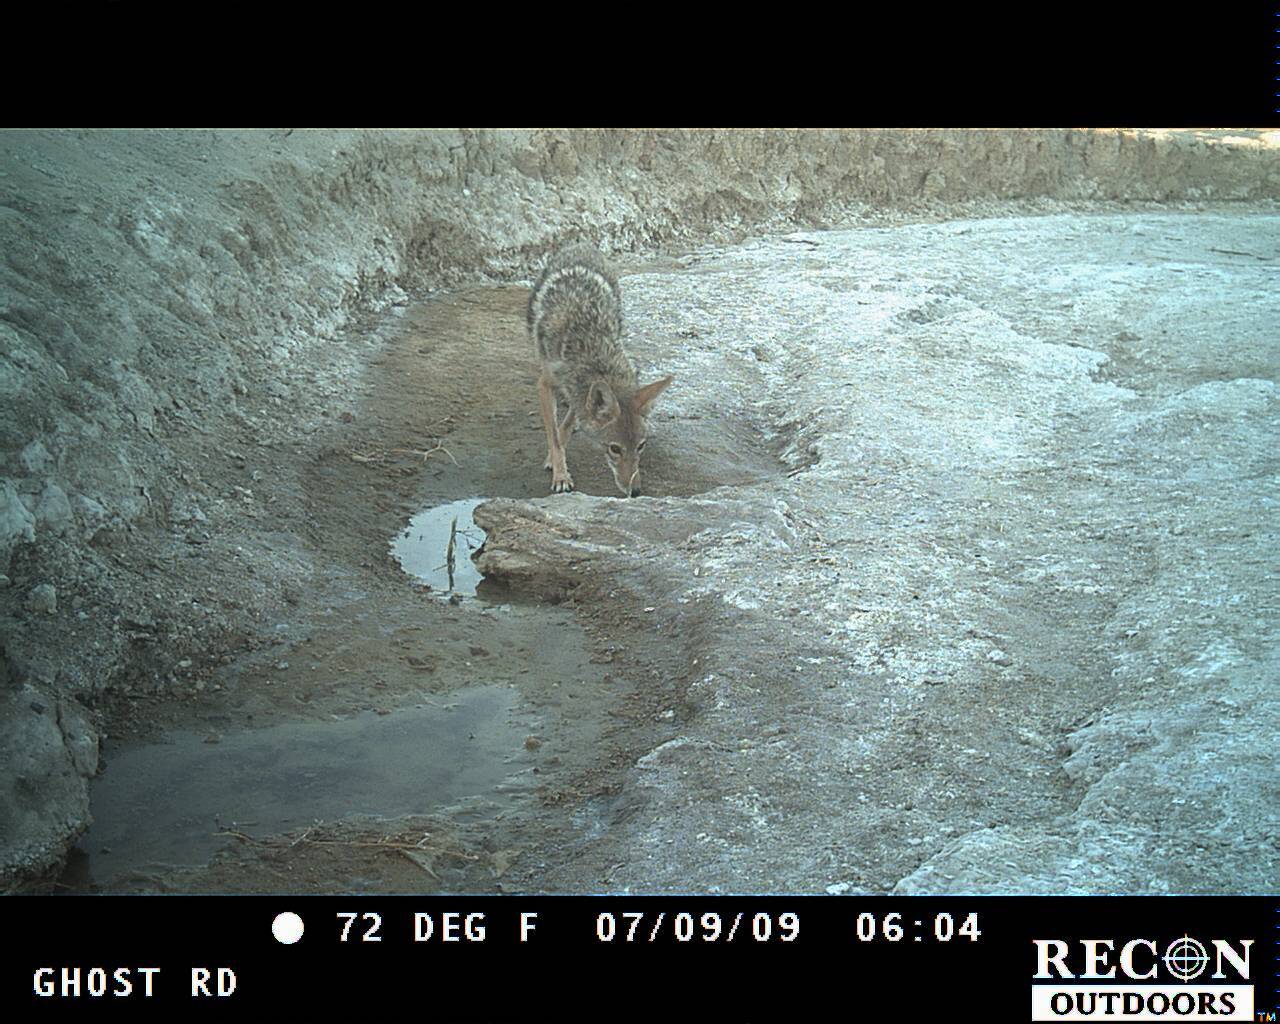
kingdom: Animalia
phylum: Chordata
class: Mammalia
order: Carnivora
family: Canidae
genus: Canis
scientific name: Canis latrans
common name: Coyote
